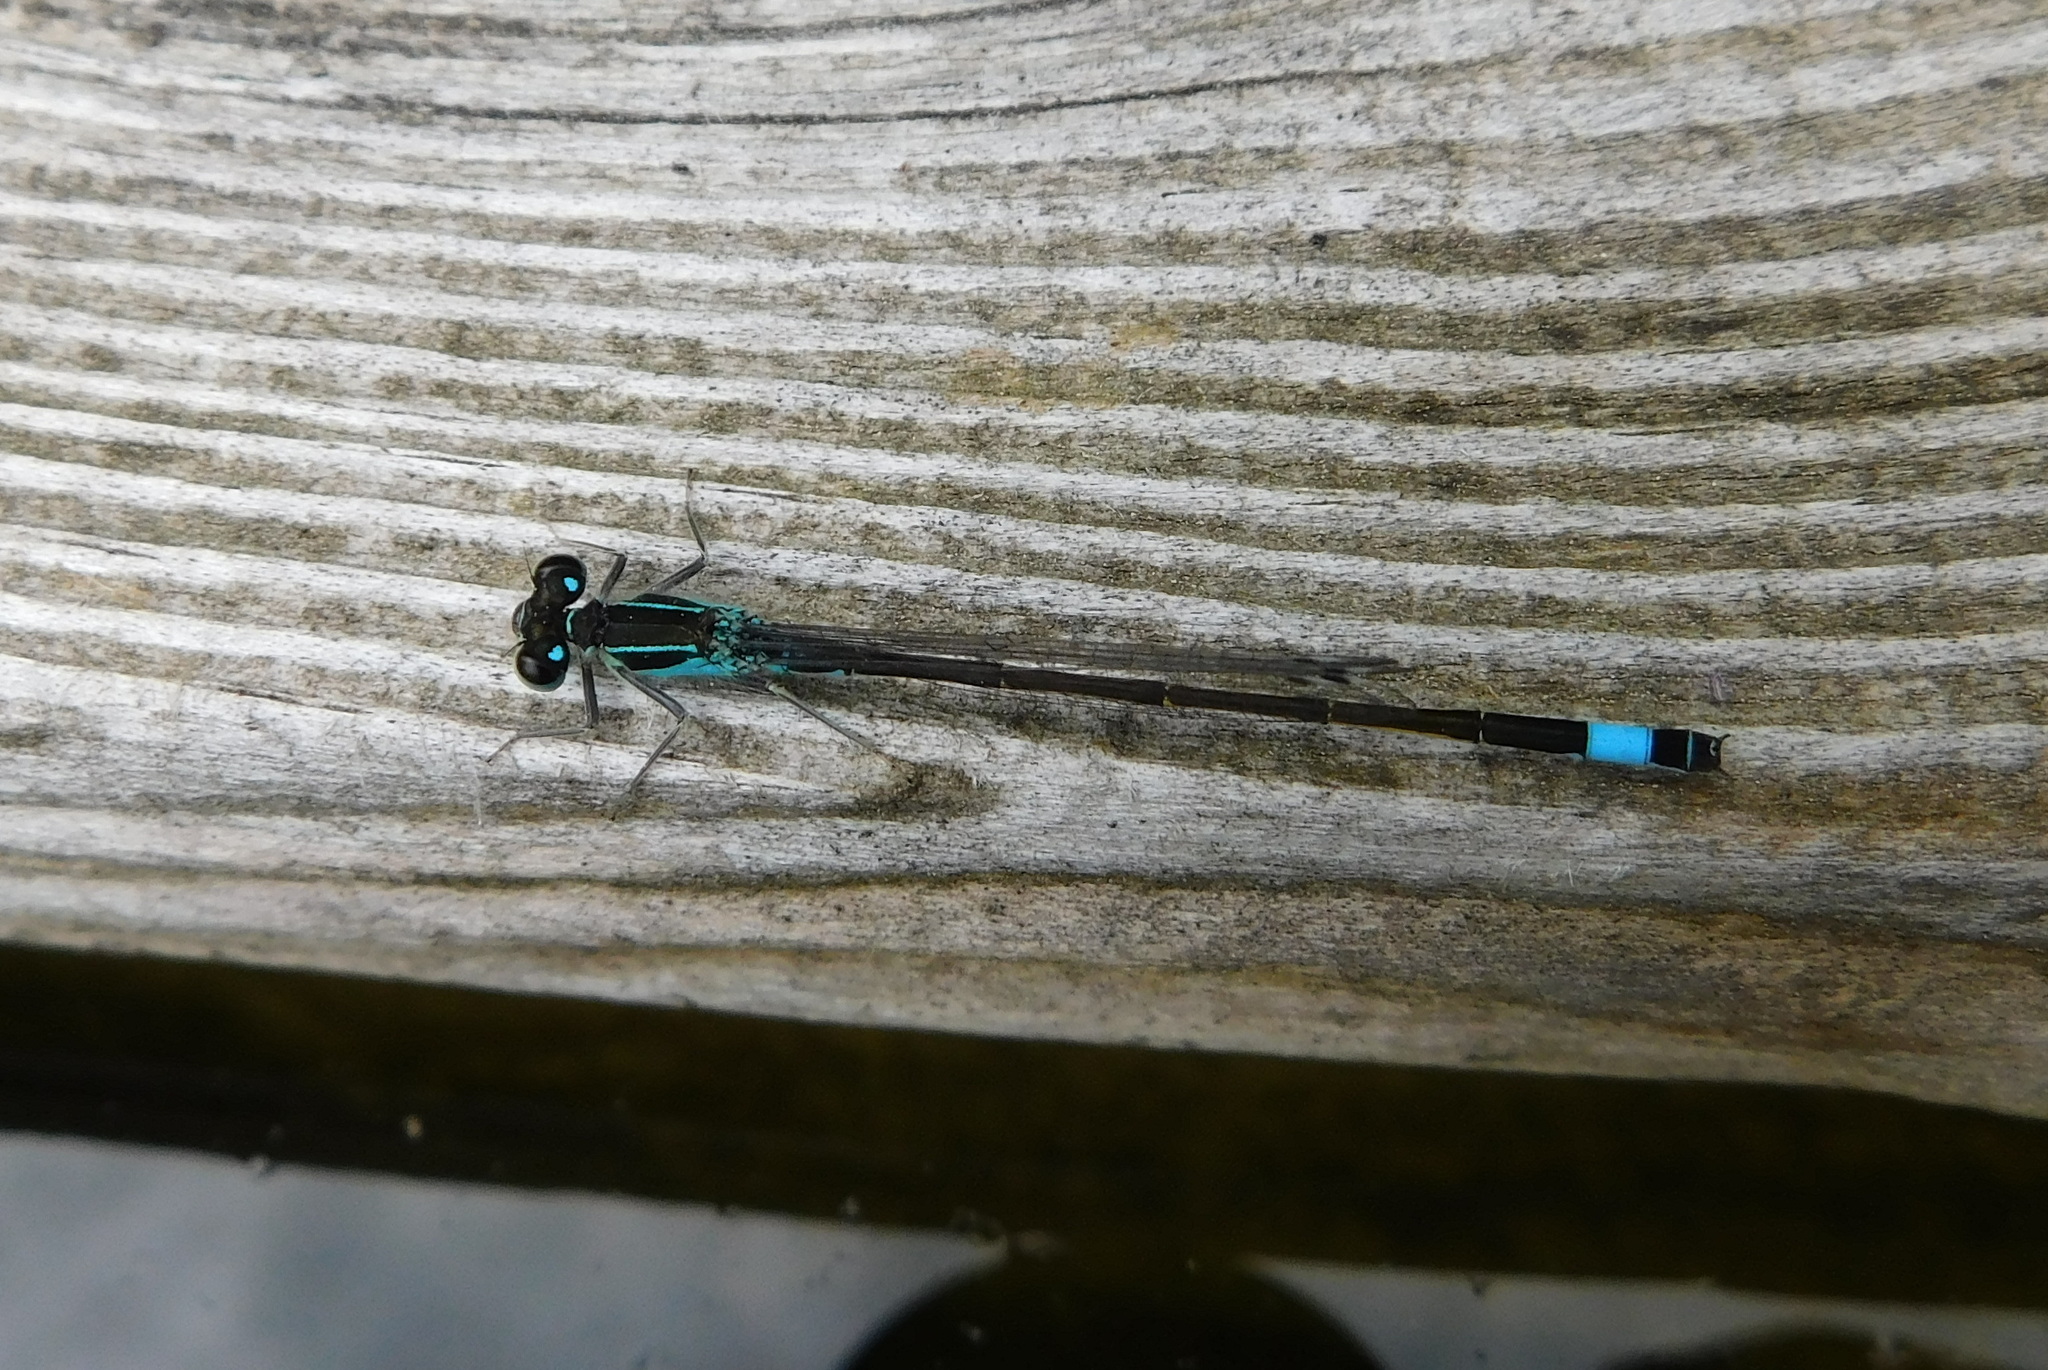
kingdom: Animalia
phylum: Arthropoda
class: Insecta
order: Odonata
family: Coenagrionidae
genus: Ischnura
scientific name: Ischnura elegans
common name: Blue-tailed damselfly
